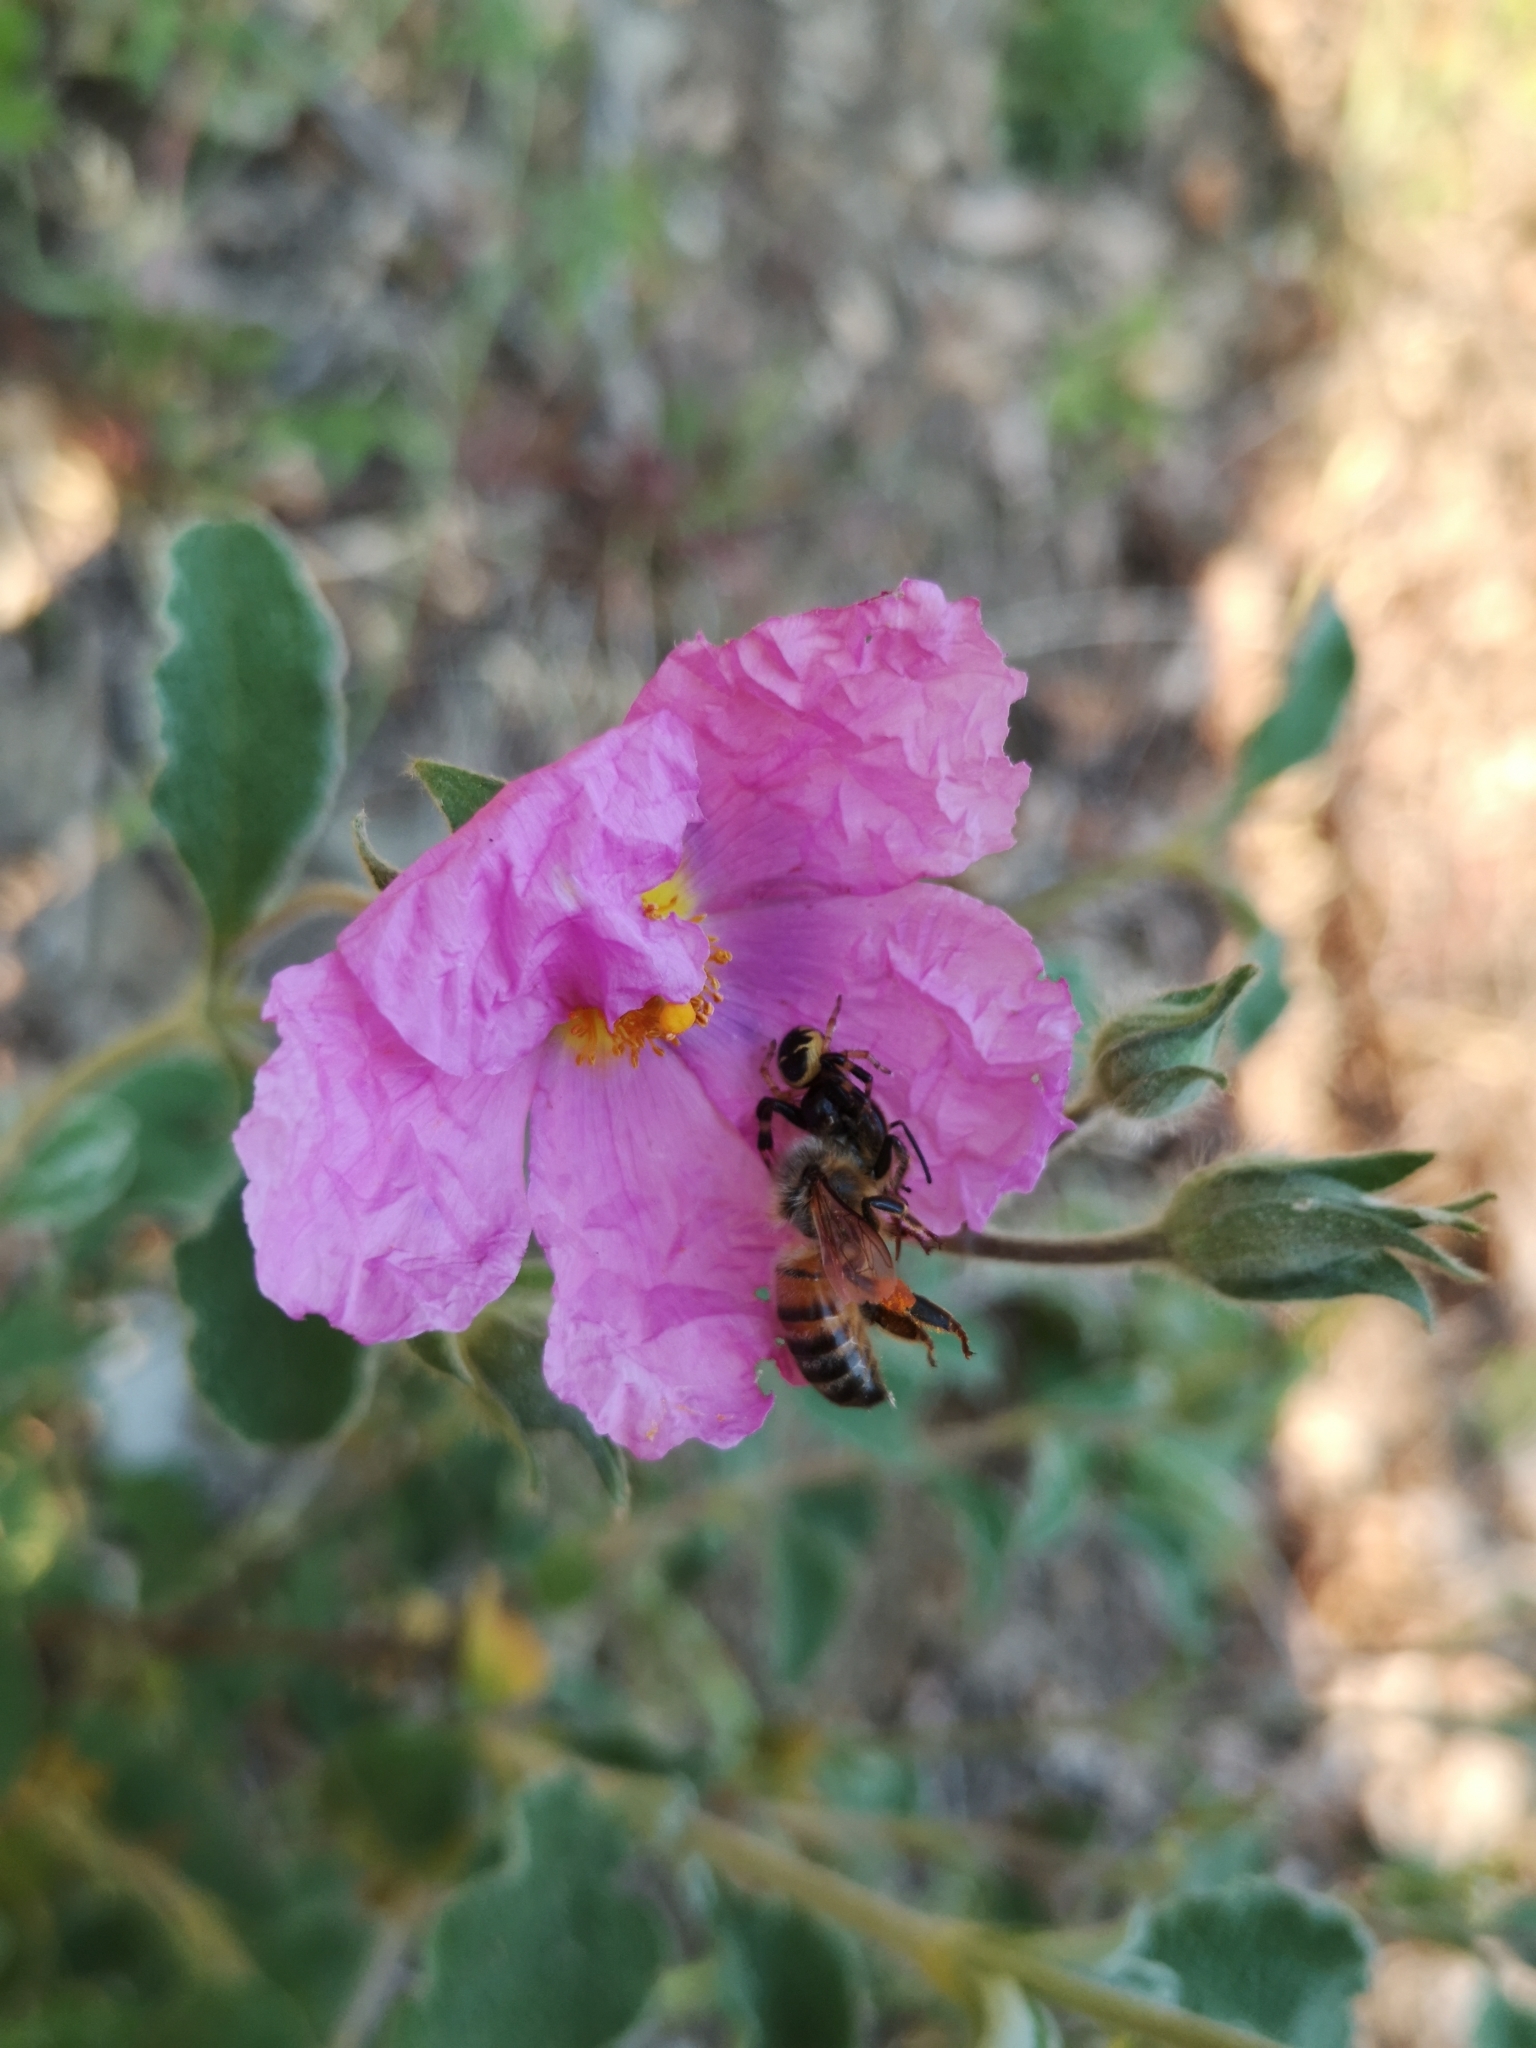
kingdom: Plantae
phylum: Tracheophyta
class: Magnoliopsida
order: Malvales
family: Cistaceae
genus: Cistus
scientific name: Cistus creticus
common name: Cretan rockrose
